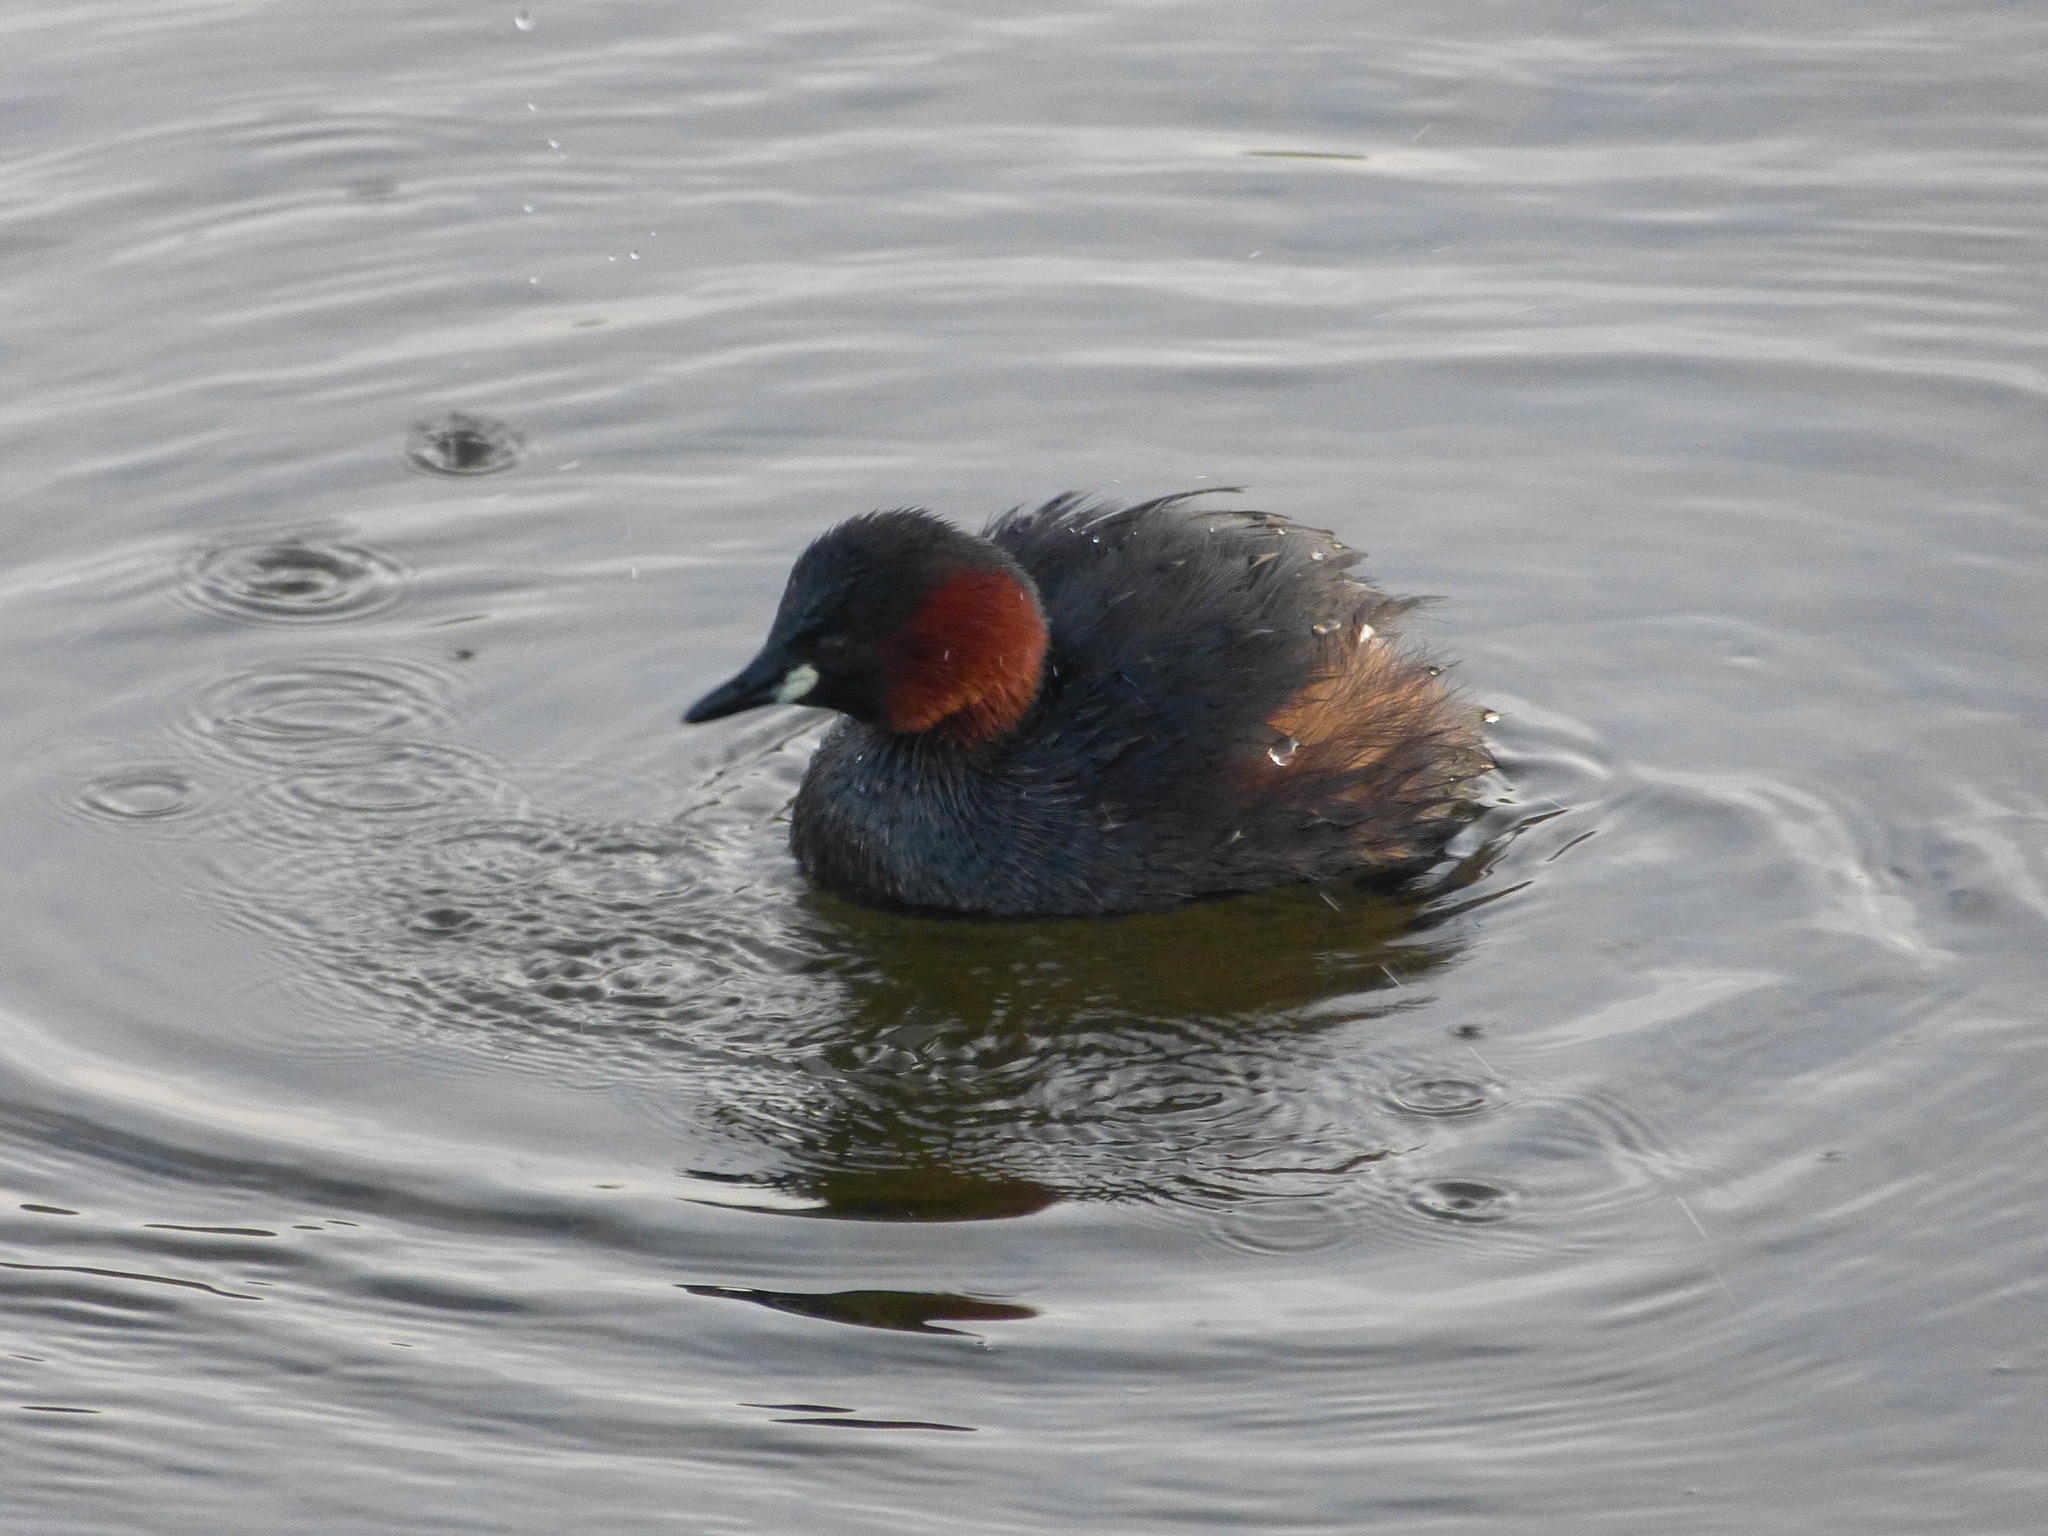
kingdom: Animalia
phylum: Chordata
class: Aves
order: Podicipediformes
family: Podicipedidae
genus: Tachybaptus
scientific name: Tachybaptus ruficollis
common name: Little grebe
